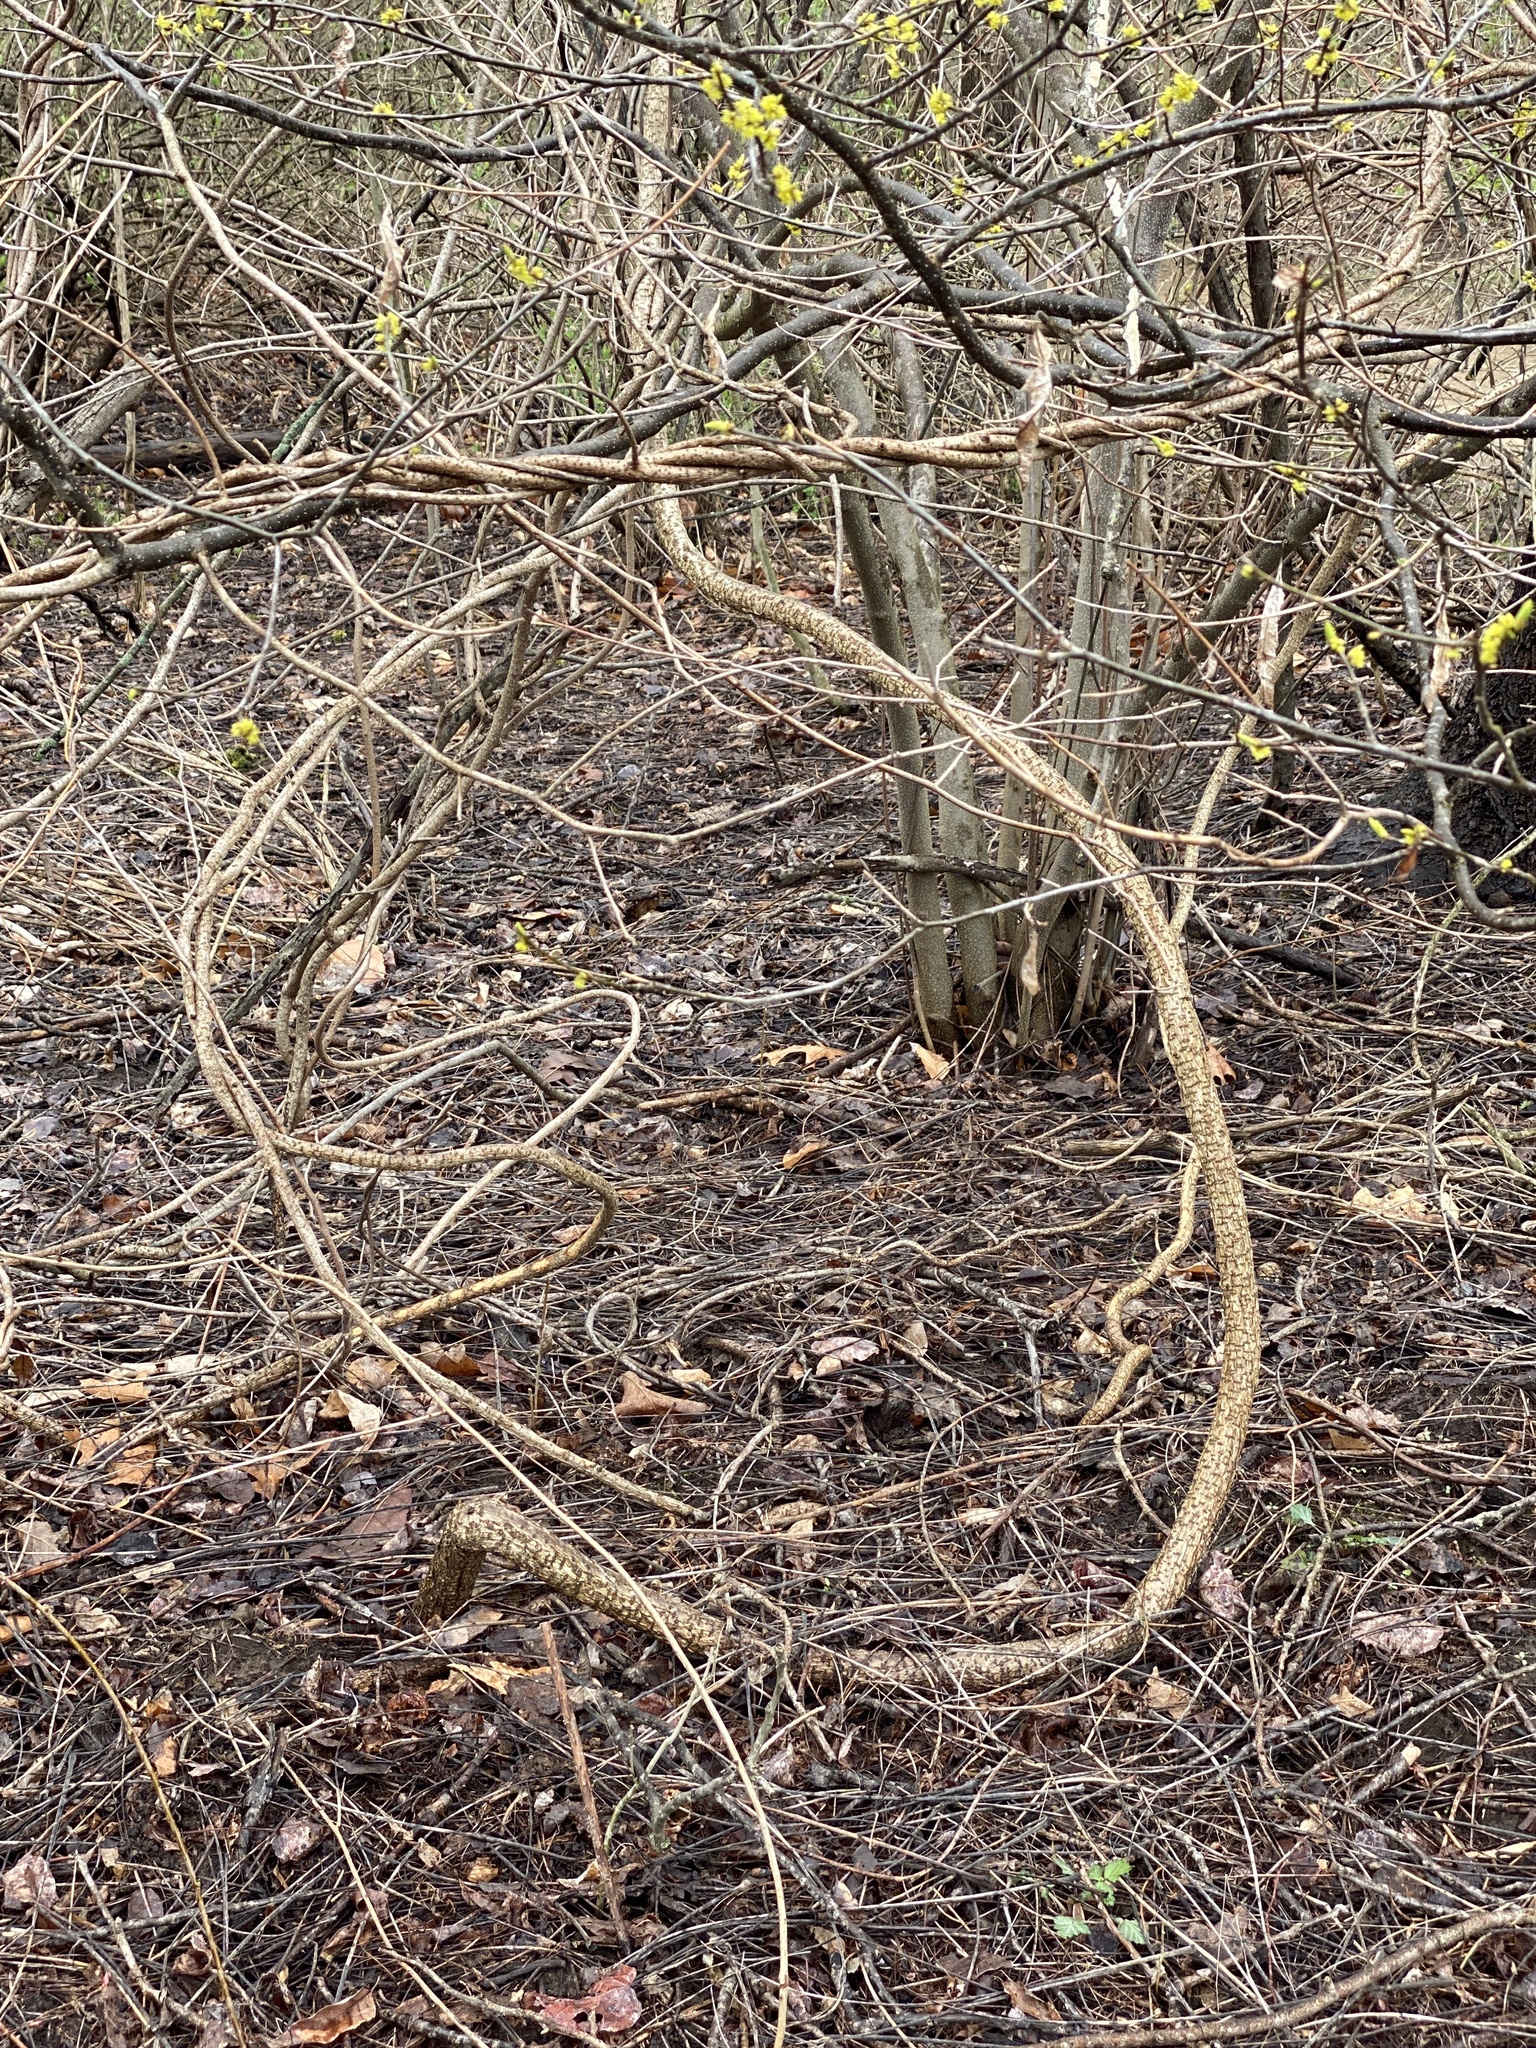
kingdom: Plantae
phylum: Tracheophyta
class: Magnoliopsida
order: Celastrales
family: Celastraceae
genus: Celastrus
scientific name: Celastrus orbiculatus
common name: Oriental bittersweet
